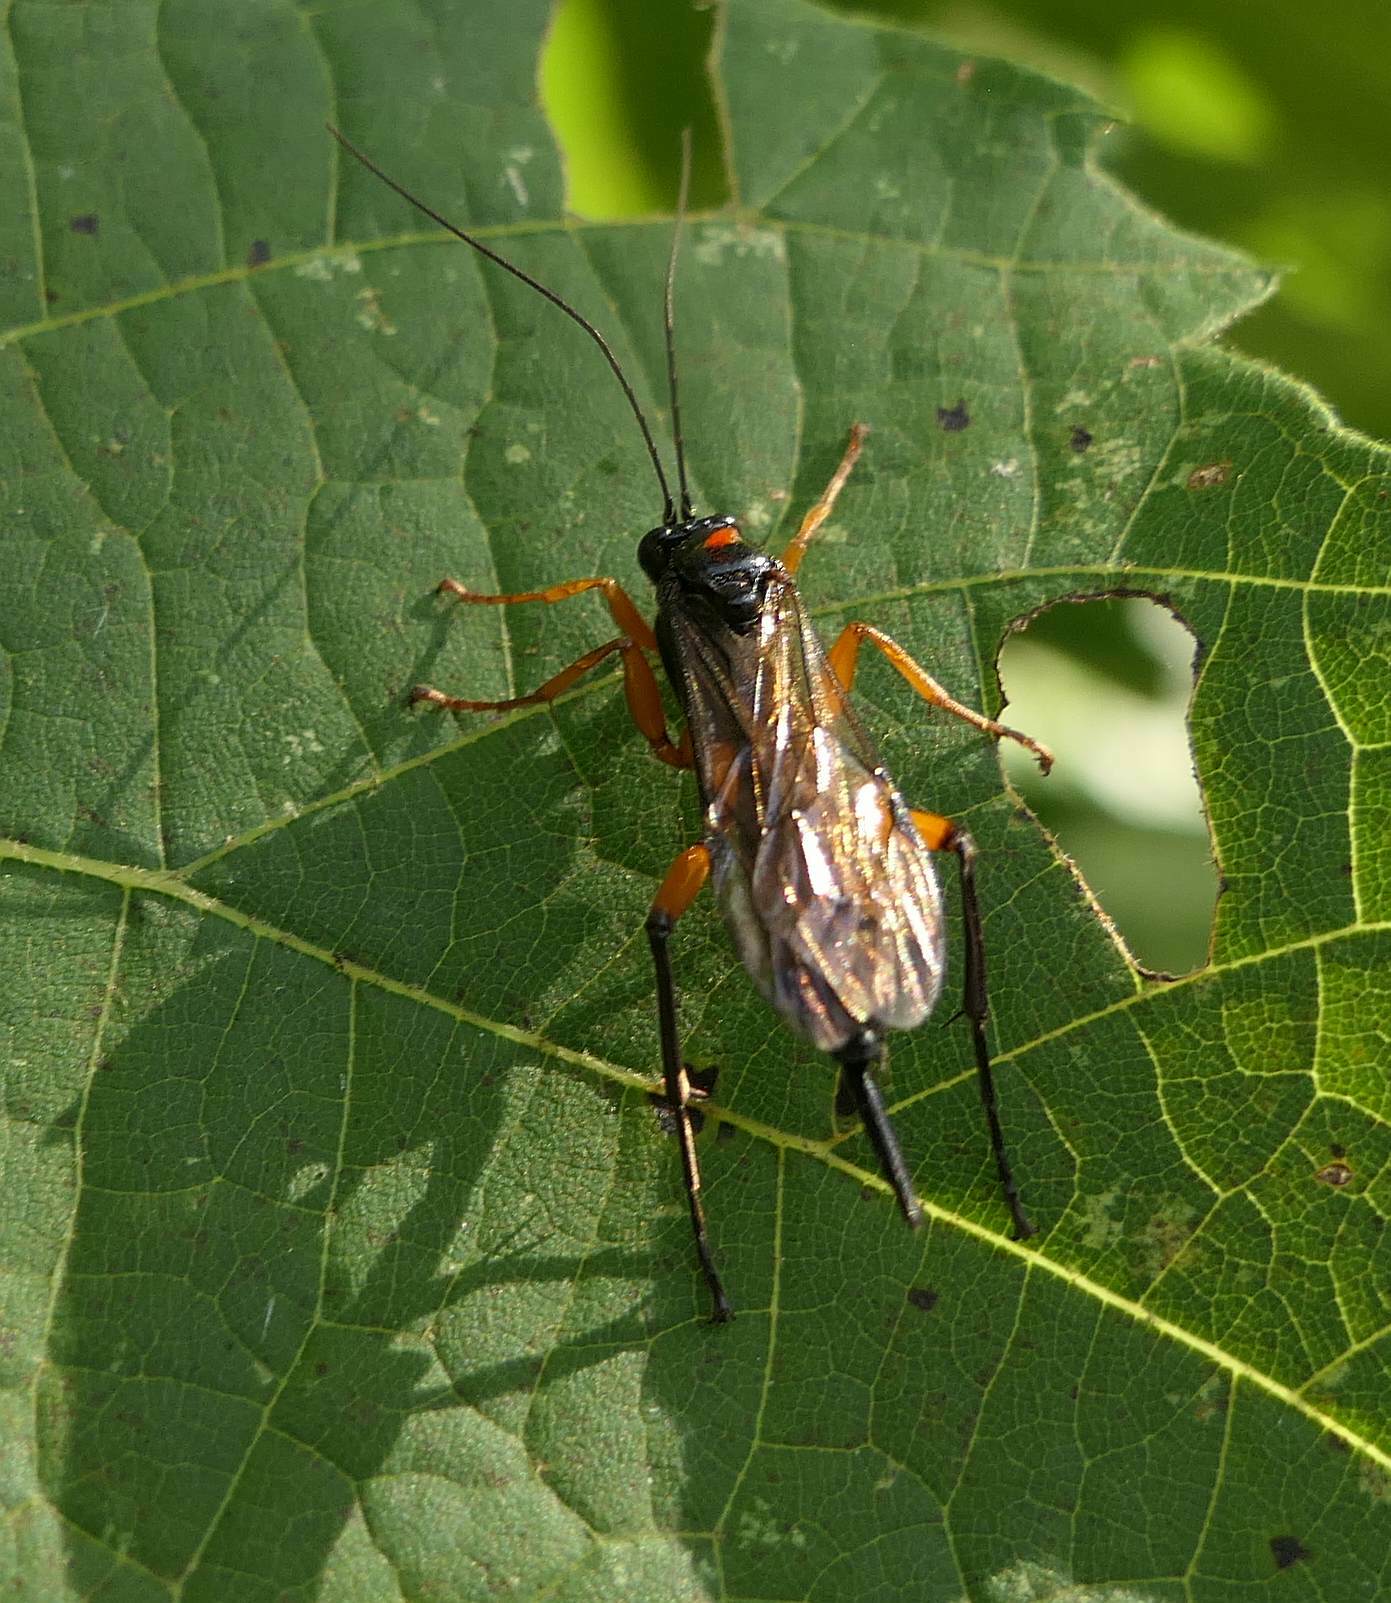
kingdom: Animalia
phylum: Arthropoda
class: Insecta
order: Hymenoptera
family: Ichneumonidae
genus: Pimpla
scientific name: Pimpla pedalis
